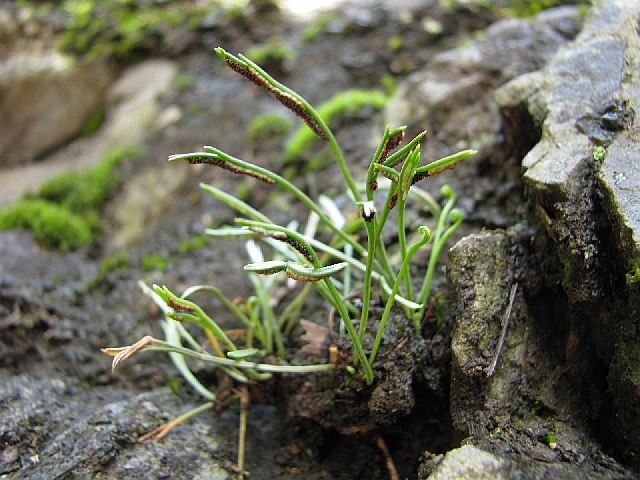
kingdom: Plantae
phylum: Tracheophyta
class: Polypodiopsida
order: Polypodiales
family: Aspleniaceae
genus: Asplenium
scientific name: Asplenium septentrionale
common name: Forked spleenwort
